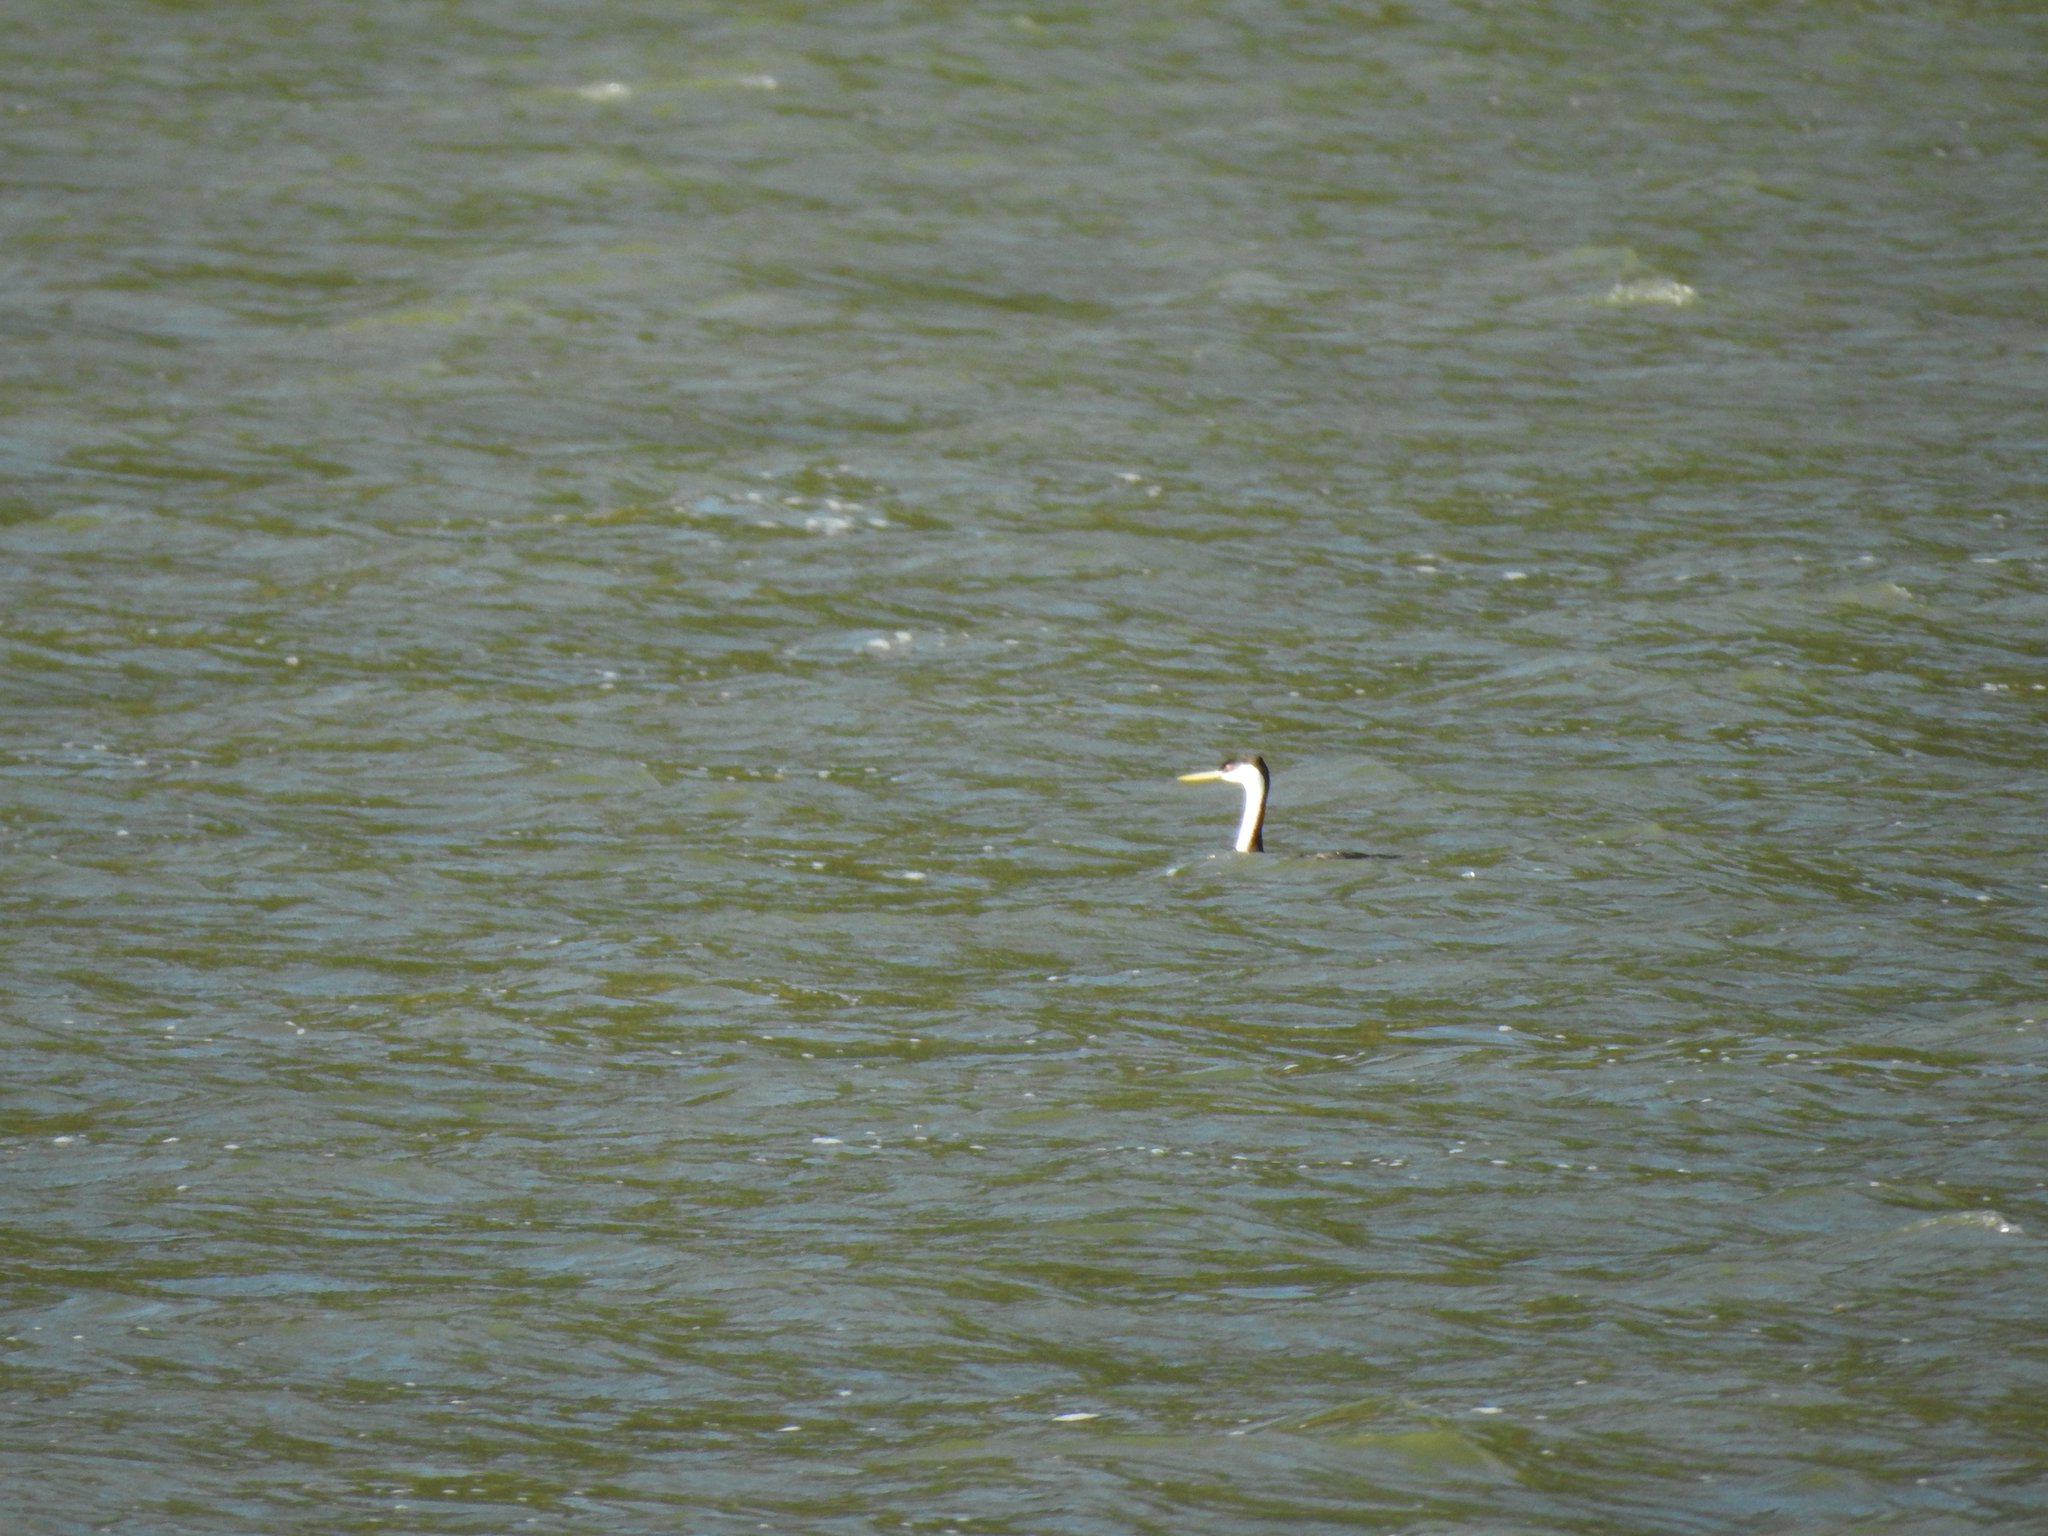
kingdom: Animalia
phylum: Chordata
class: Aves
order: Podicipediformes
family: Podicipedidae
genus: Aechmophorus
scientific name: Aechmophorus occidentalis
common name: Western grebe
